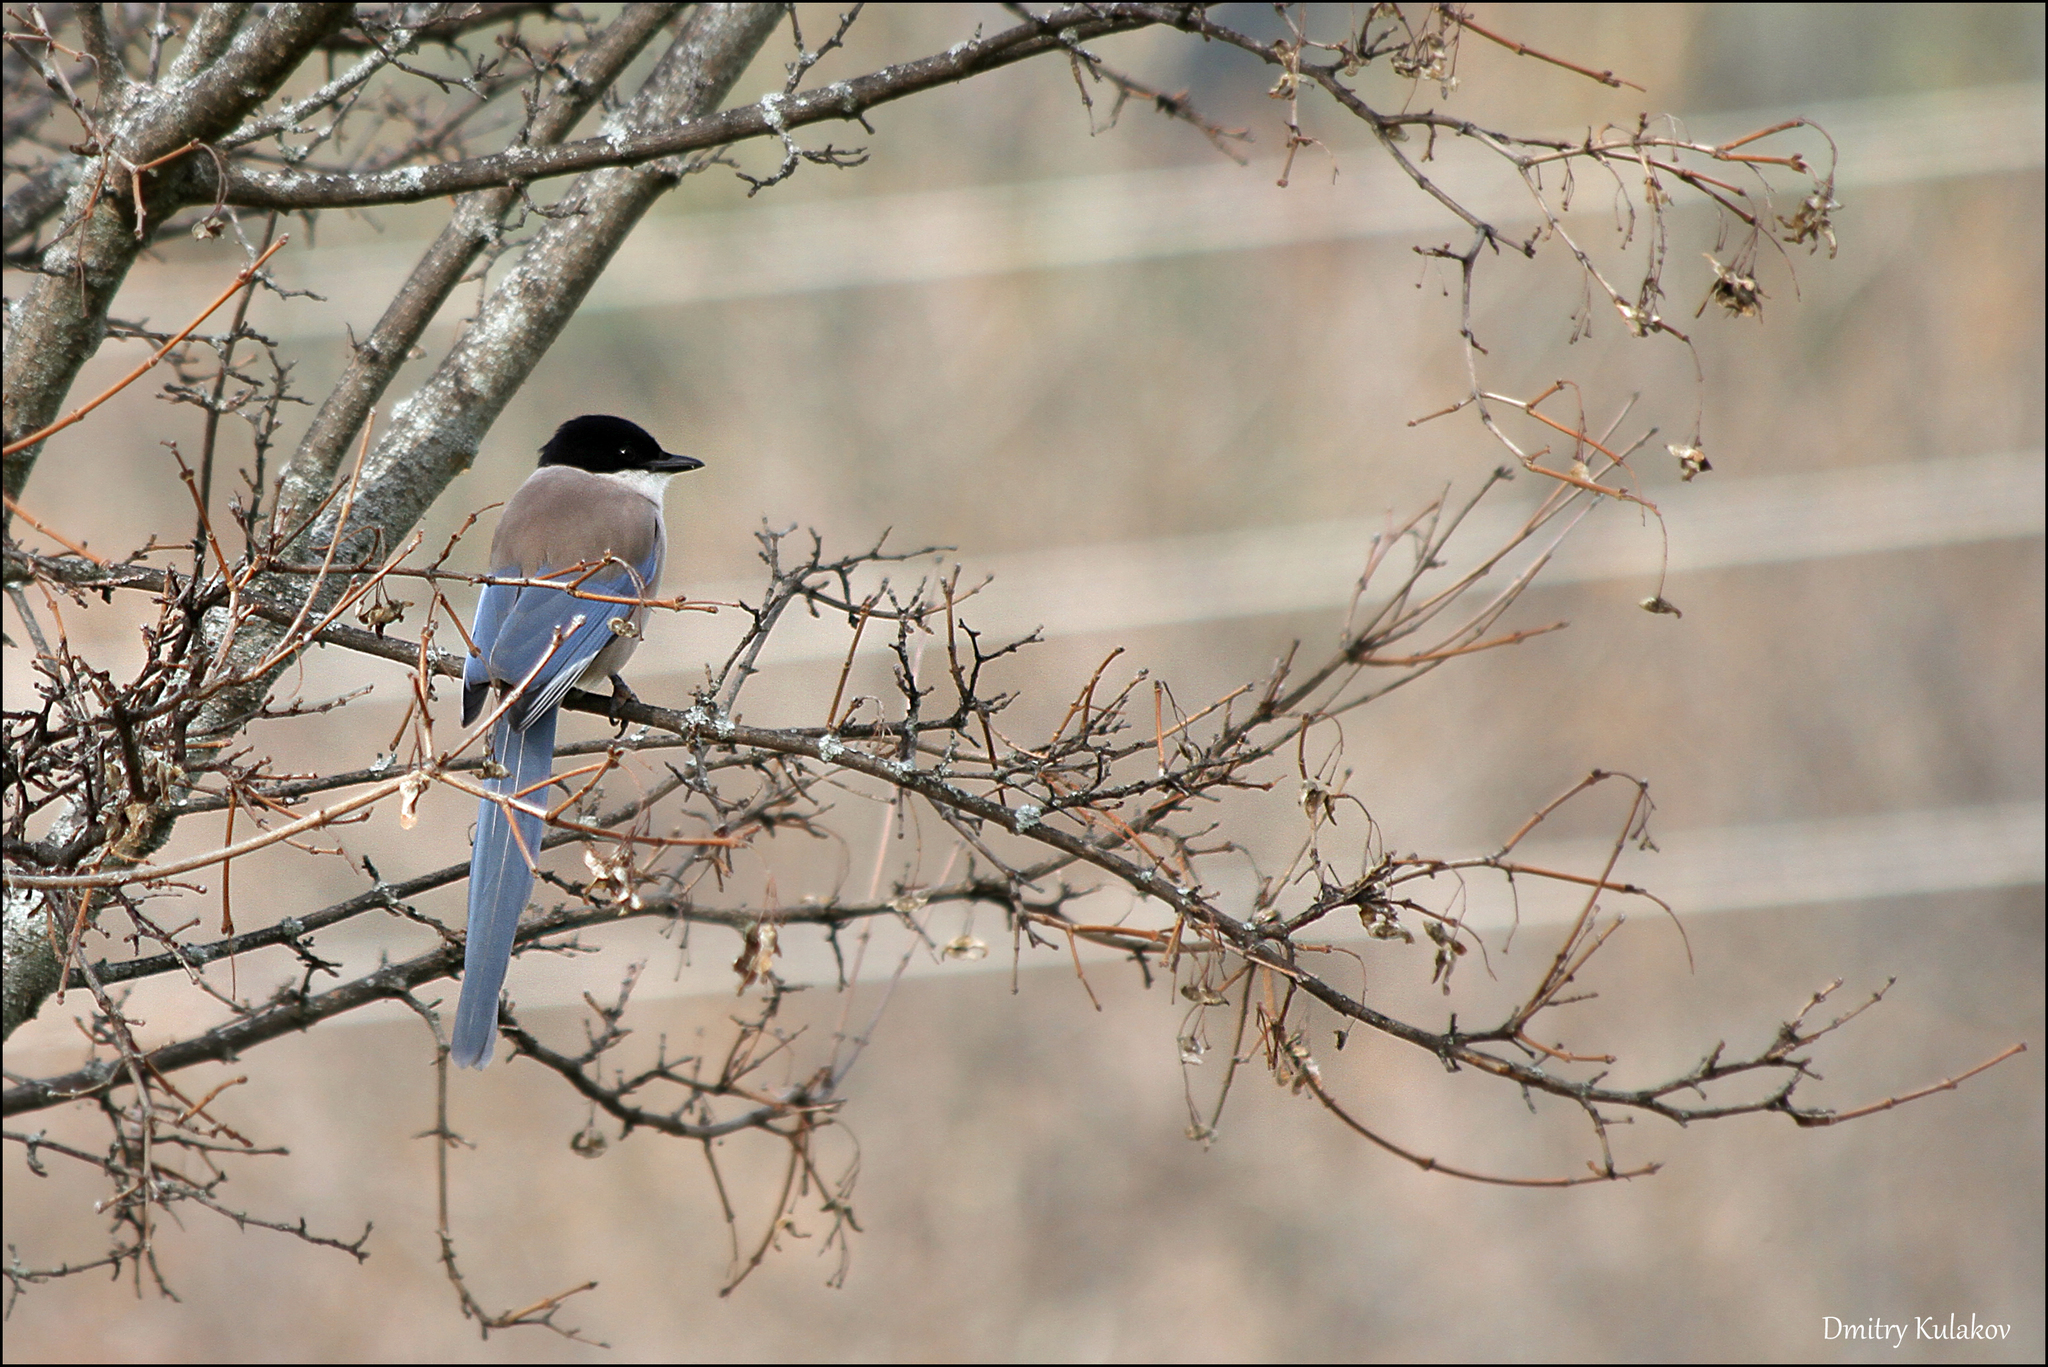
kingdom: Animalia
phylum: Chordata
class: Aves
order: Passeriformes
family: Corvidae
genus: Cyanopica
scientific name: Cyanopica cooki
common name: Iberian magpie
